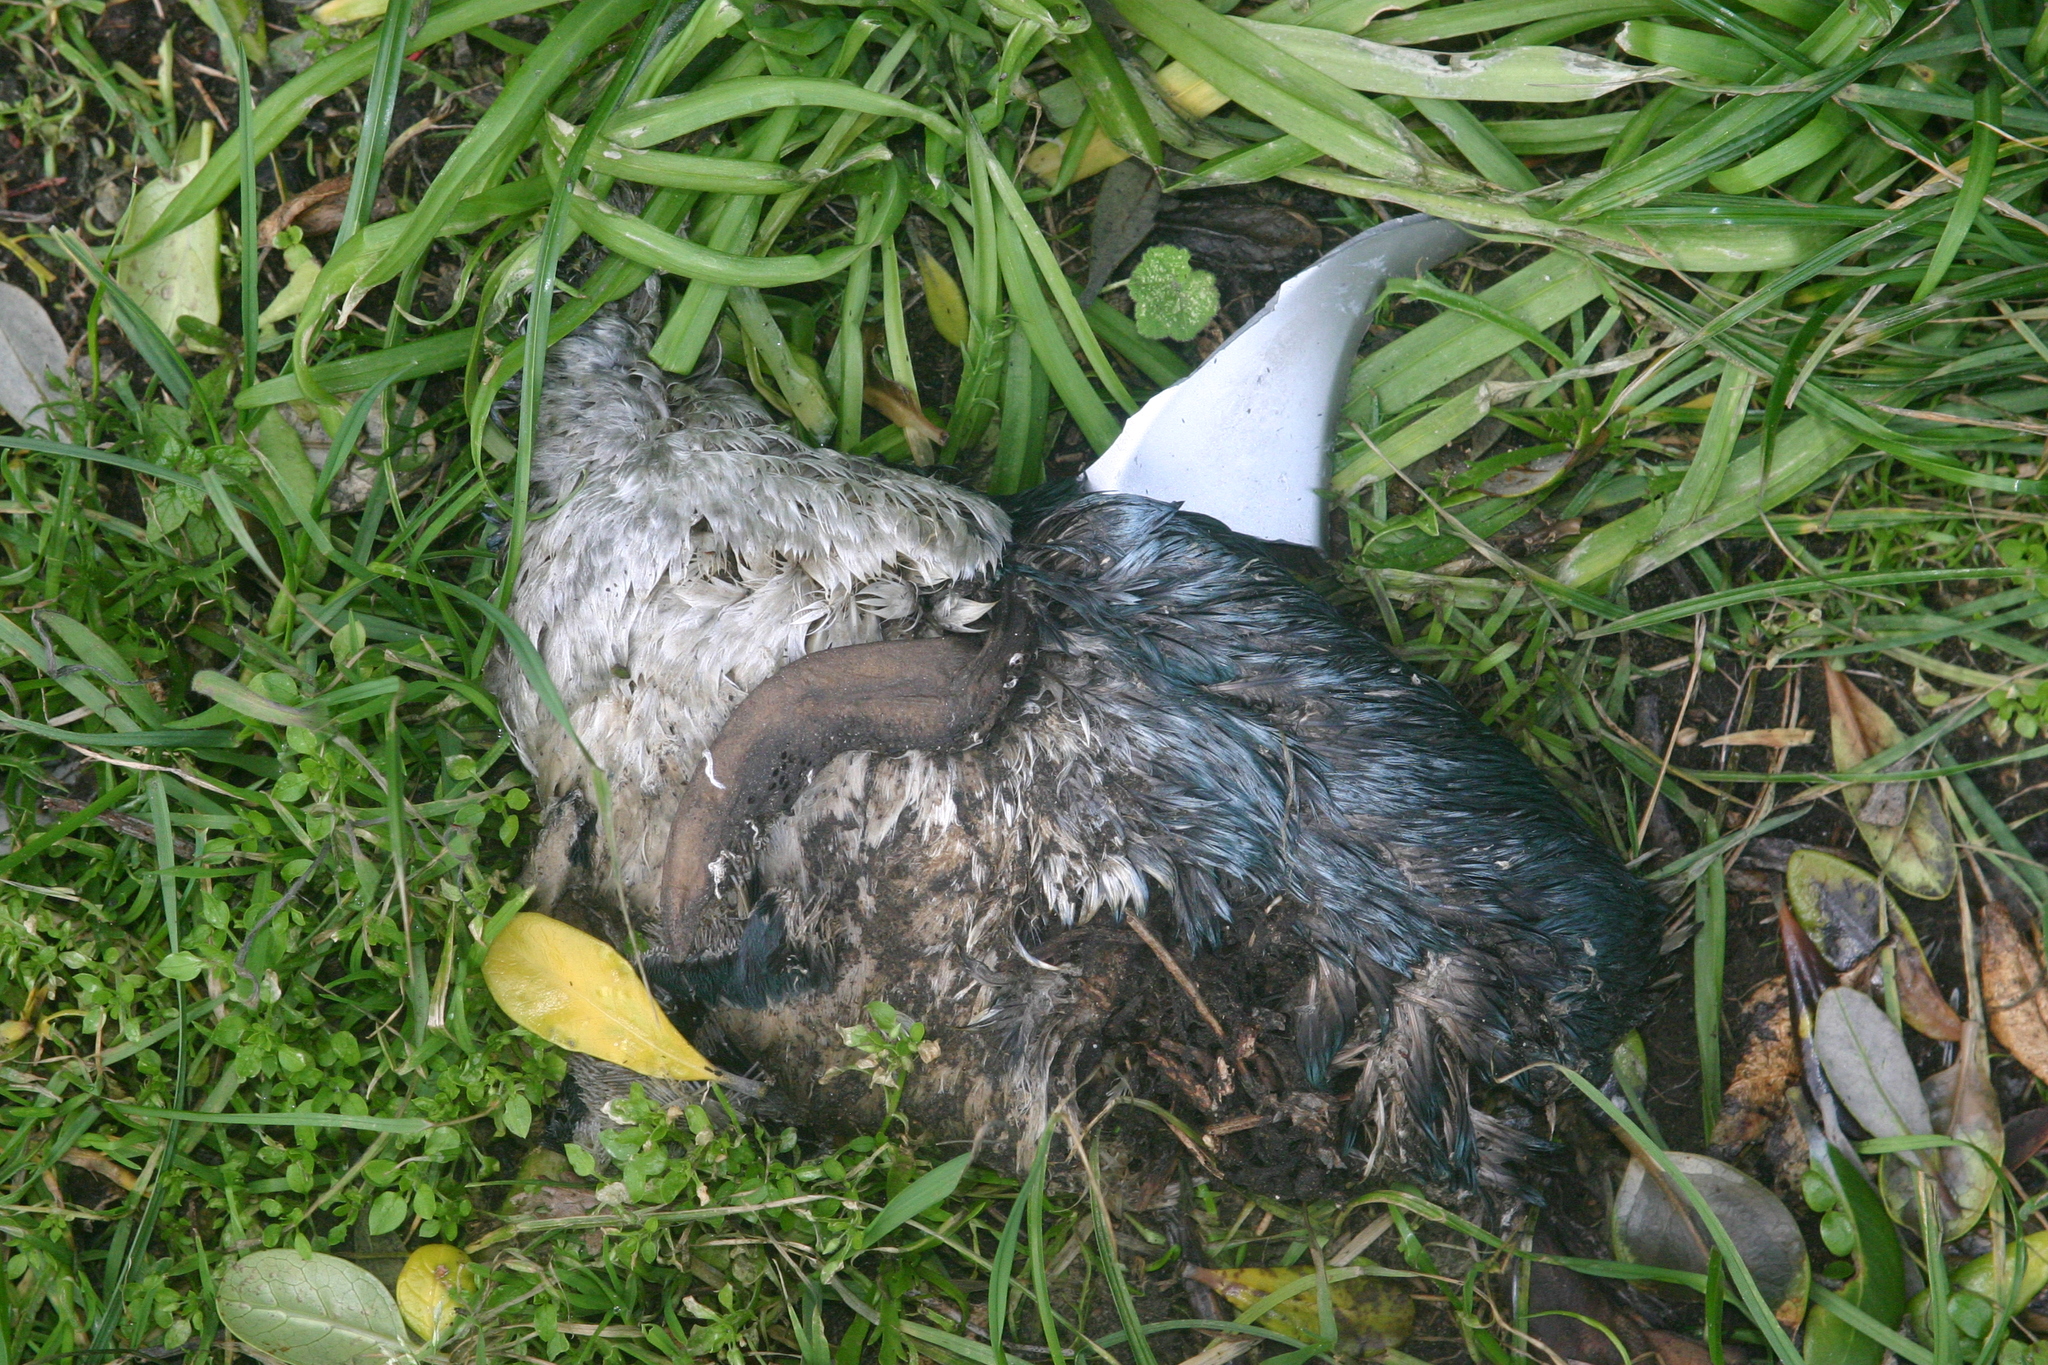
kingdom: Animalia
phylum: Chordata
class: Aves
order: Sphenisciformes
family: Spheniscidae
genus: Eudyptula
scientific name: Eudyptula minor
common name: Little penguin
